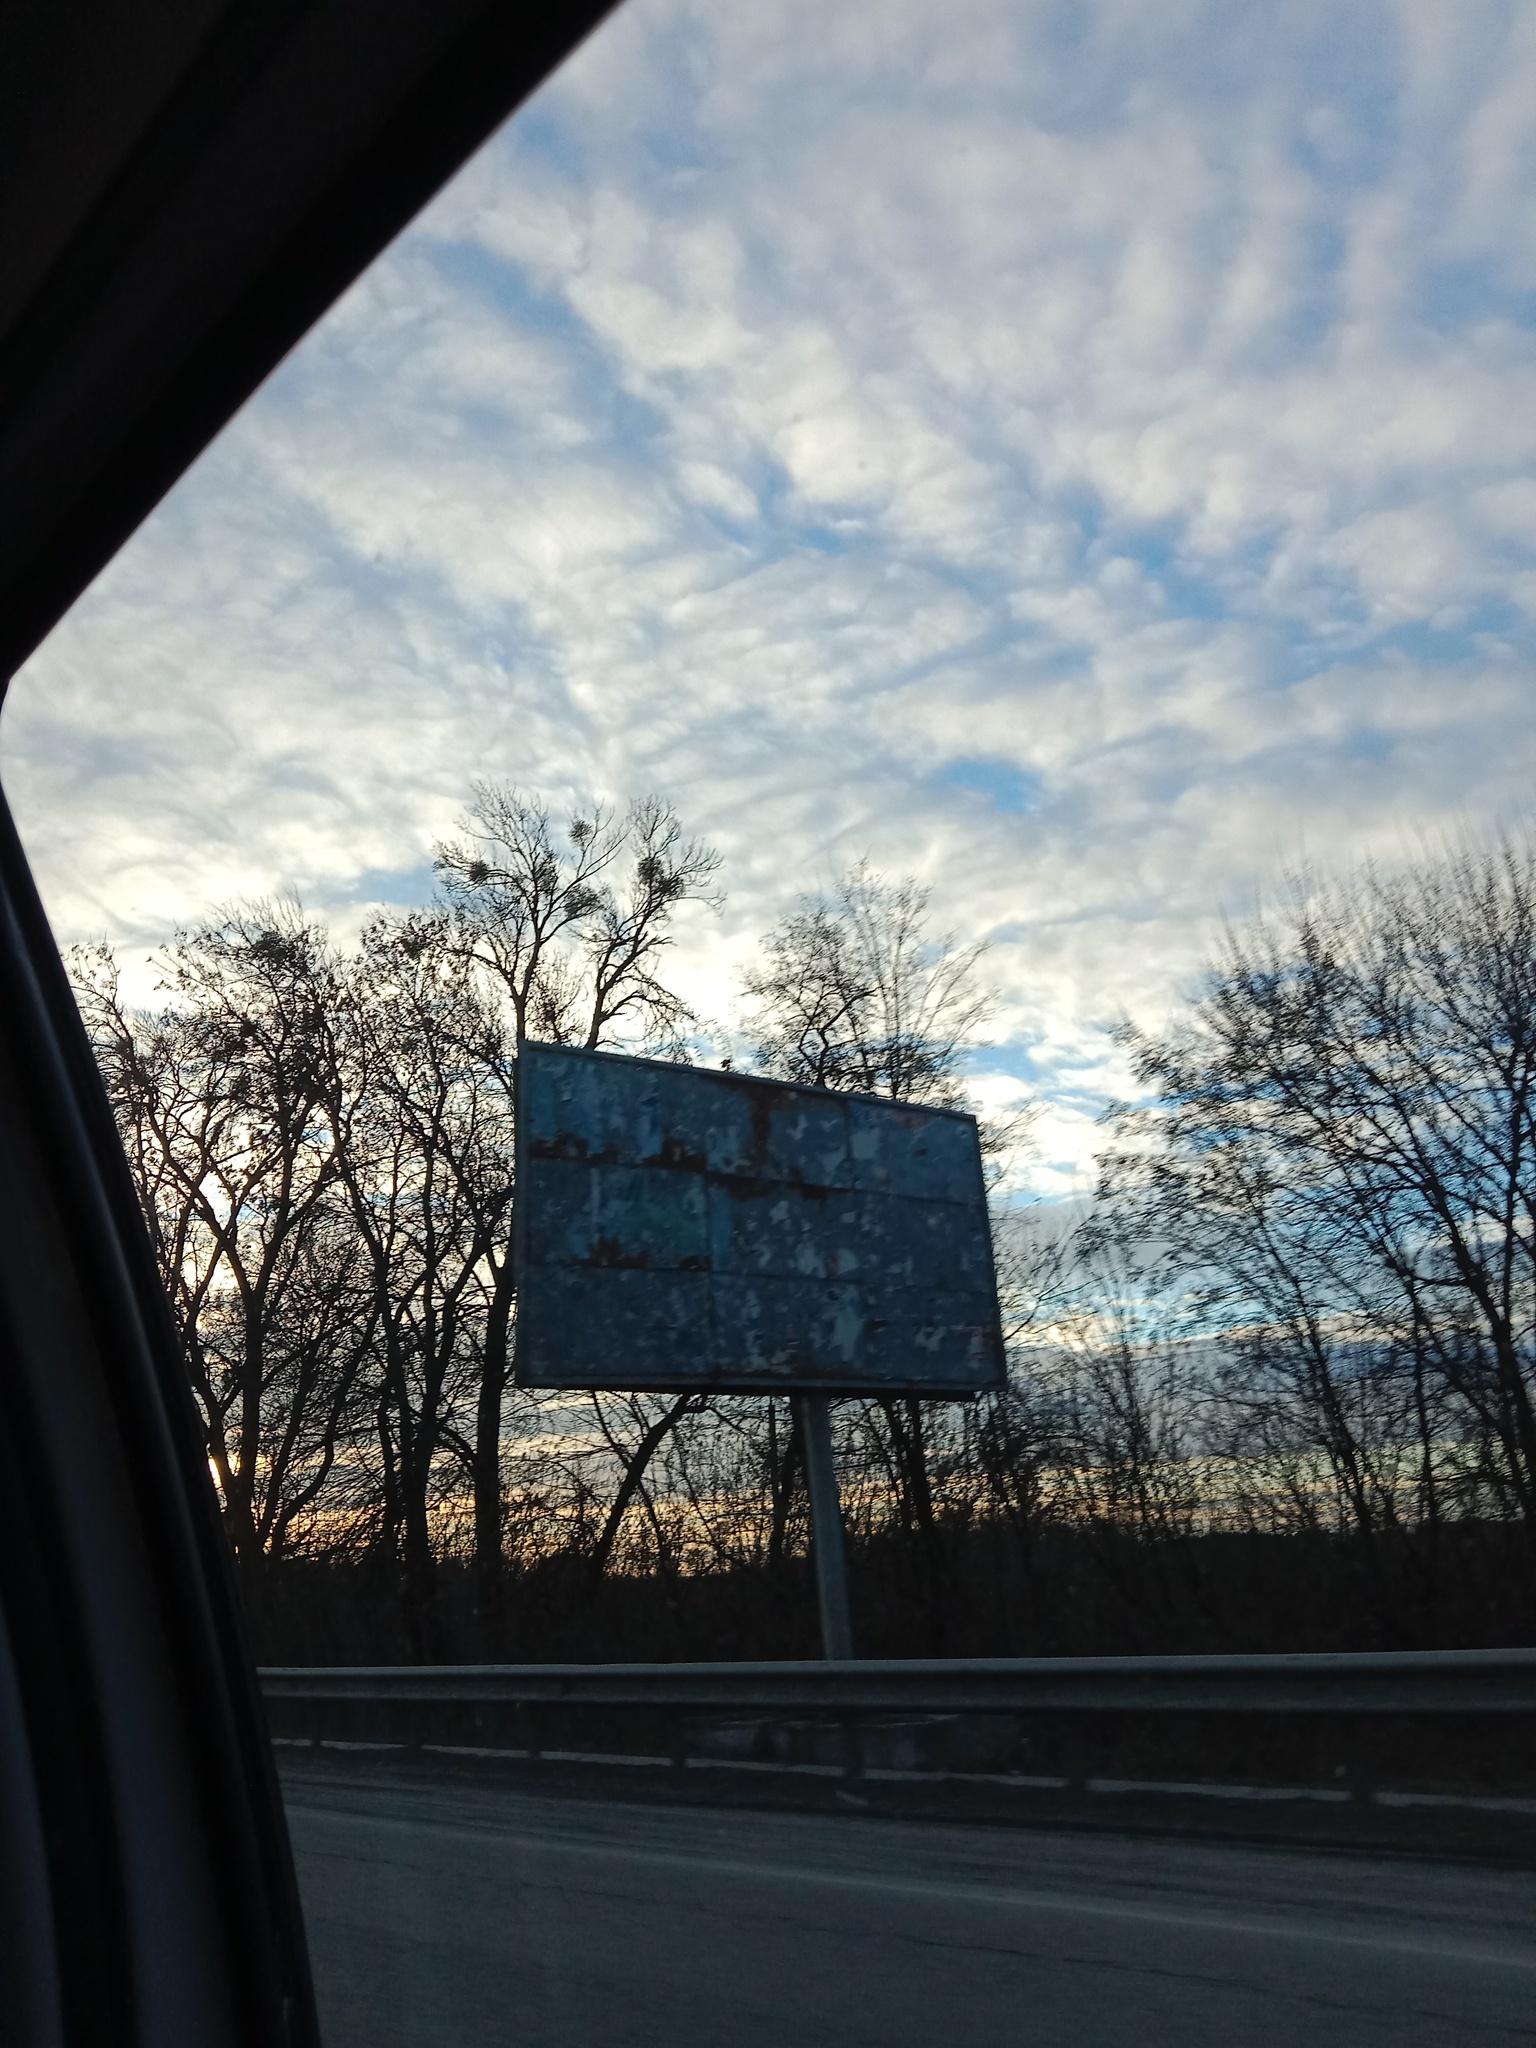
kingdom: Plantae
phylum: Tracheophyta
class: Magnoliopsida
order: Santalales
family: Viscaceae
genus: Viscum
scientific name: Viscum album
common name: Mistletoe
